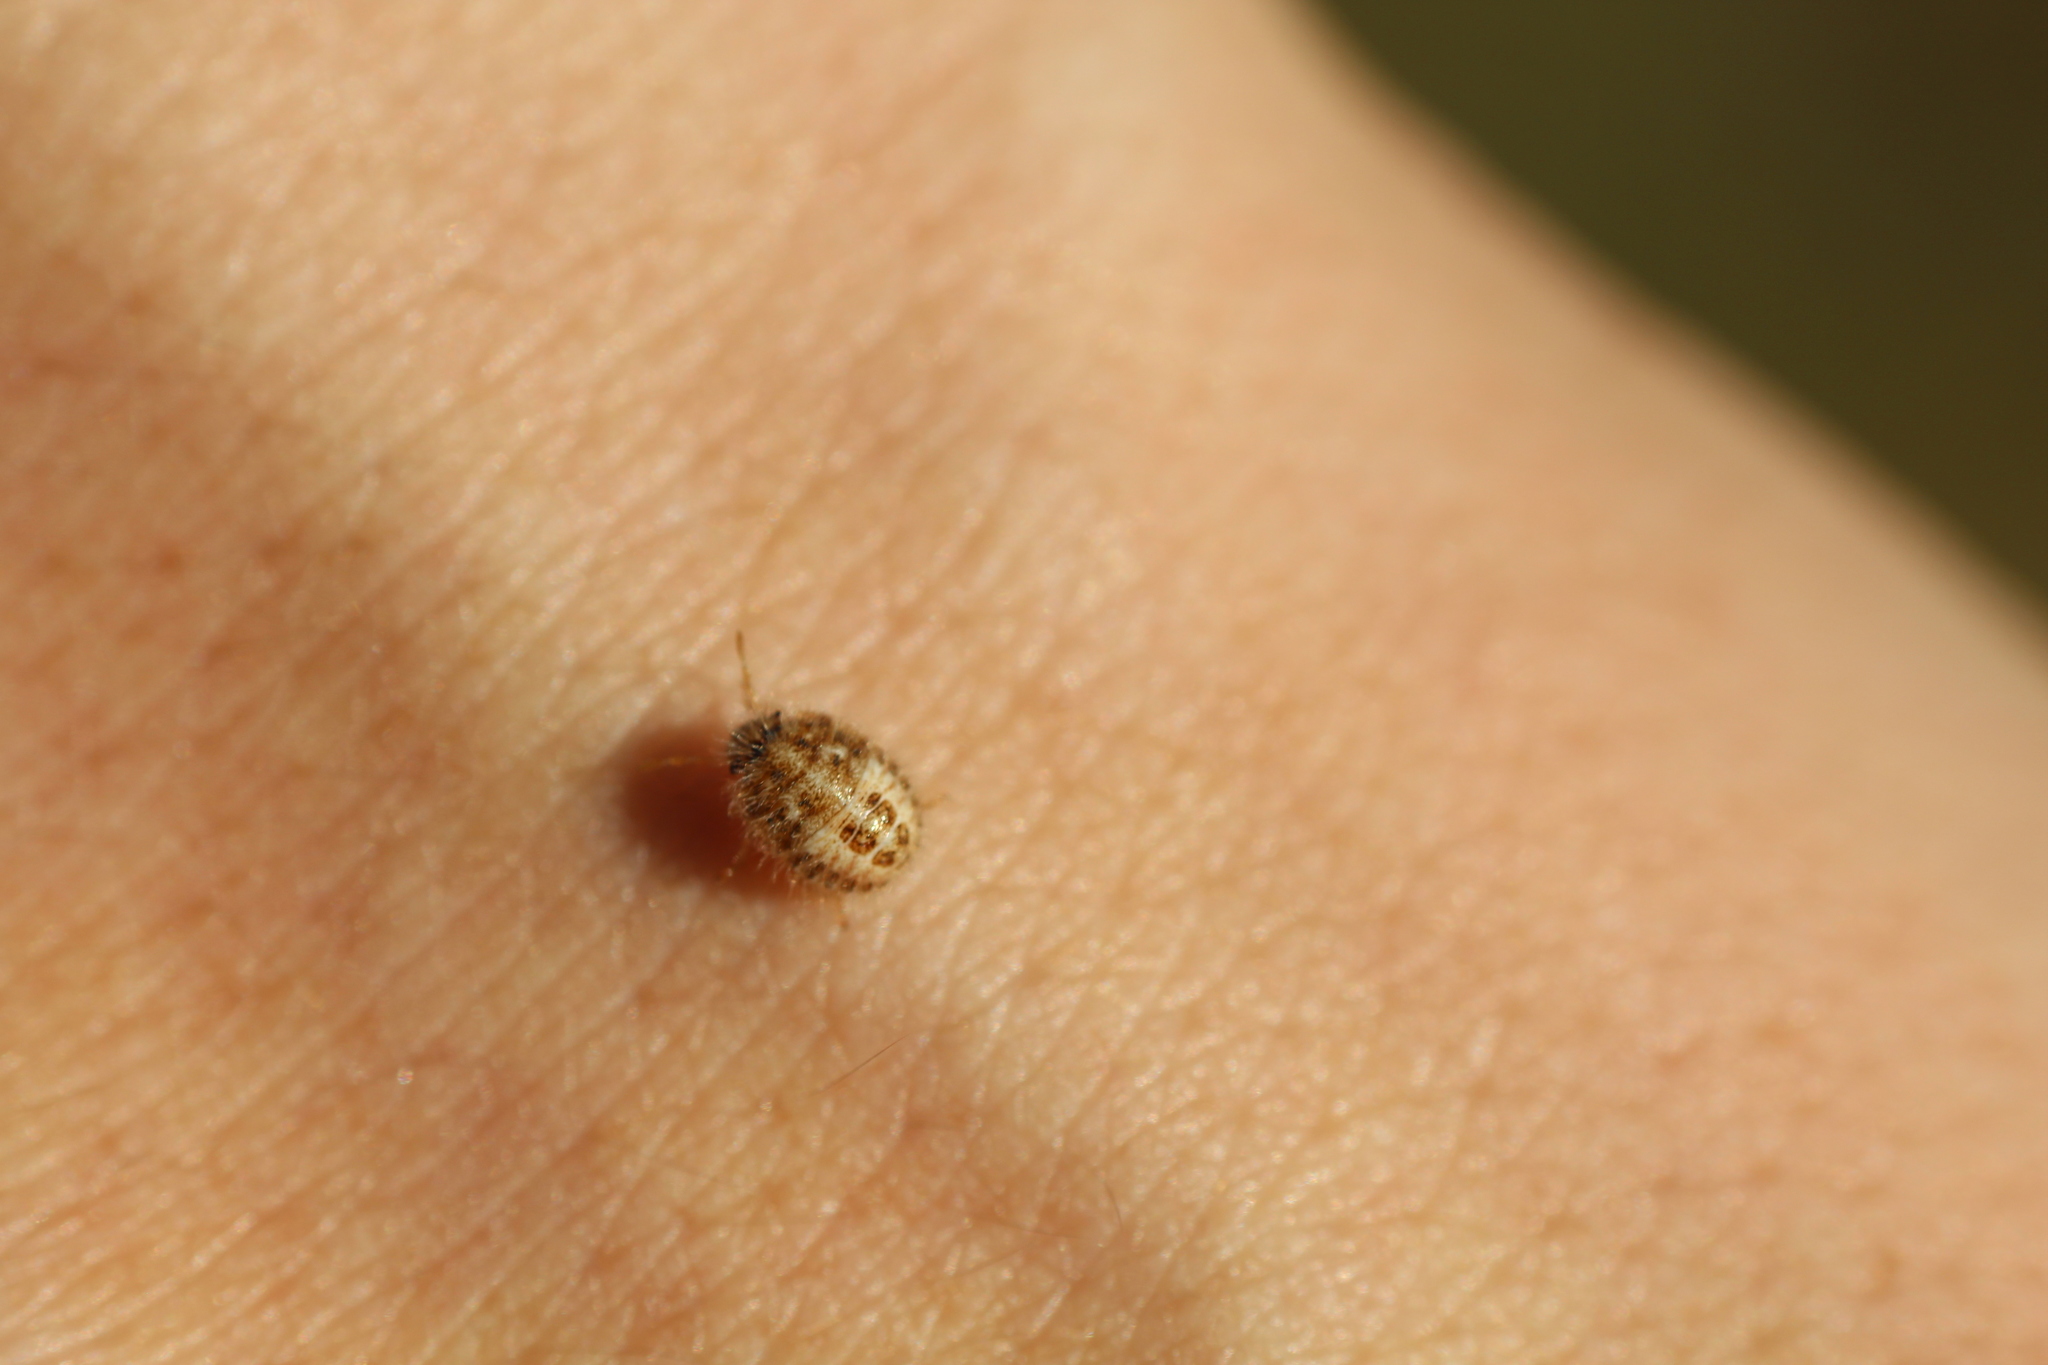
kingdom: Animalia
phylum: Arthropoda
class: Insecta
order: Hemiptera
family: Pentatomidae
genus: Staria
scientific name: Staria lunata
